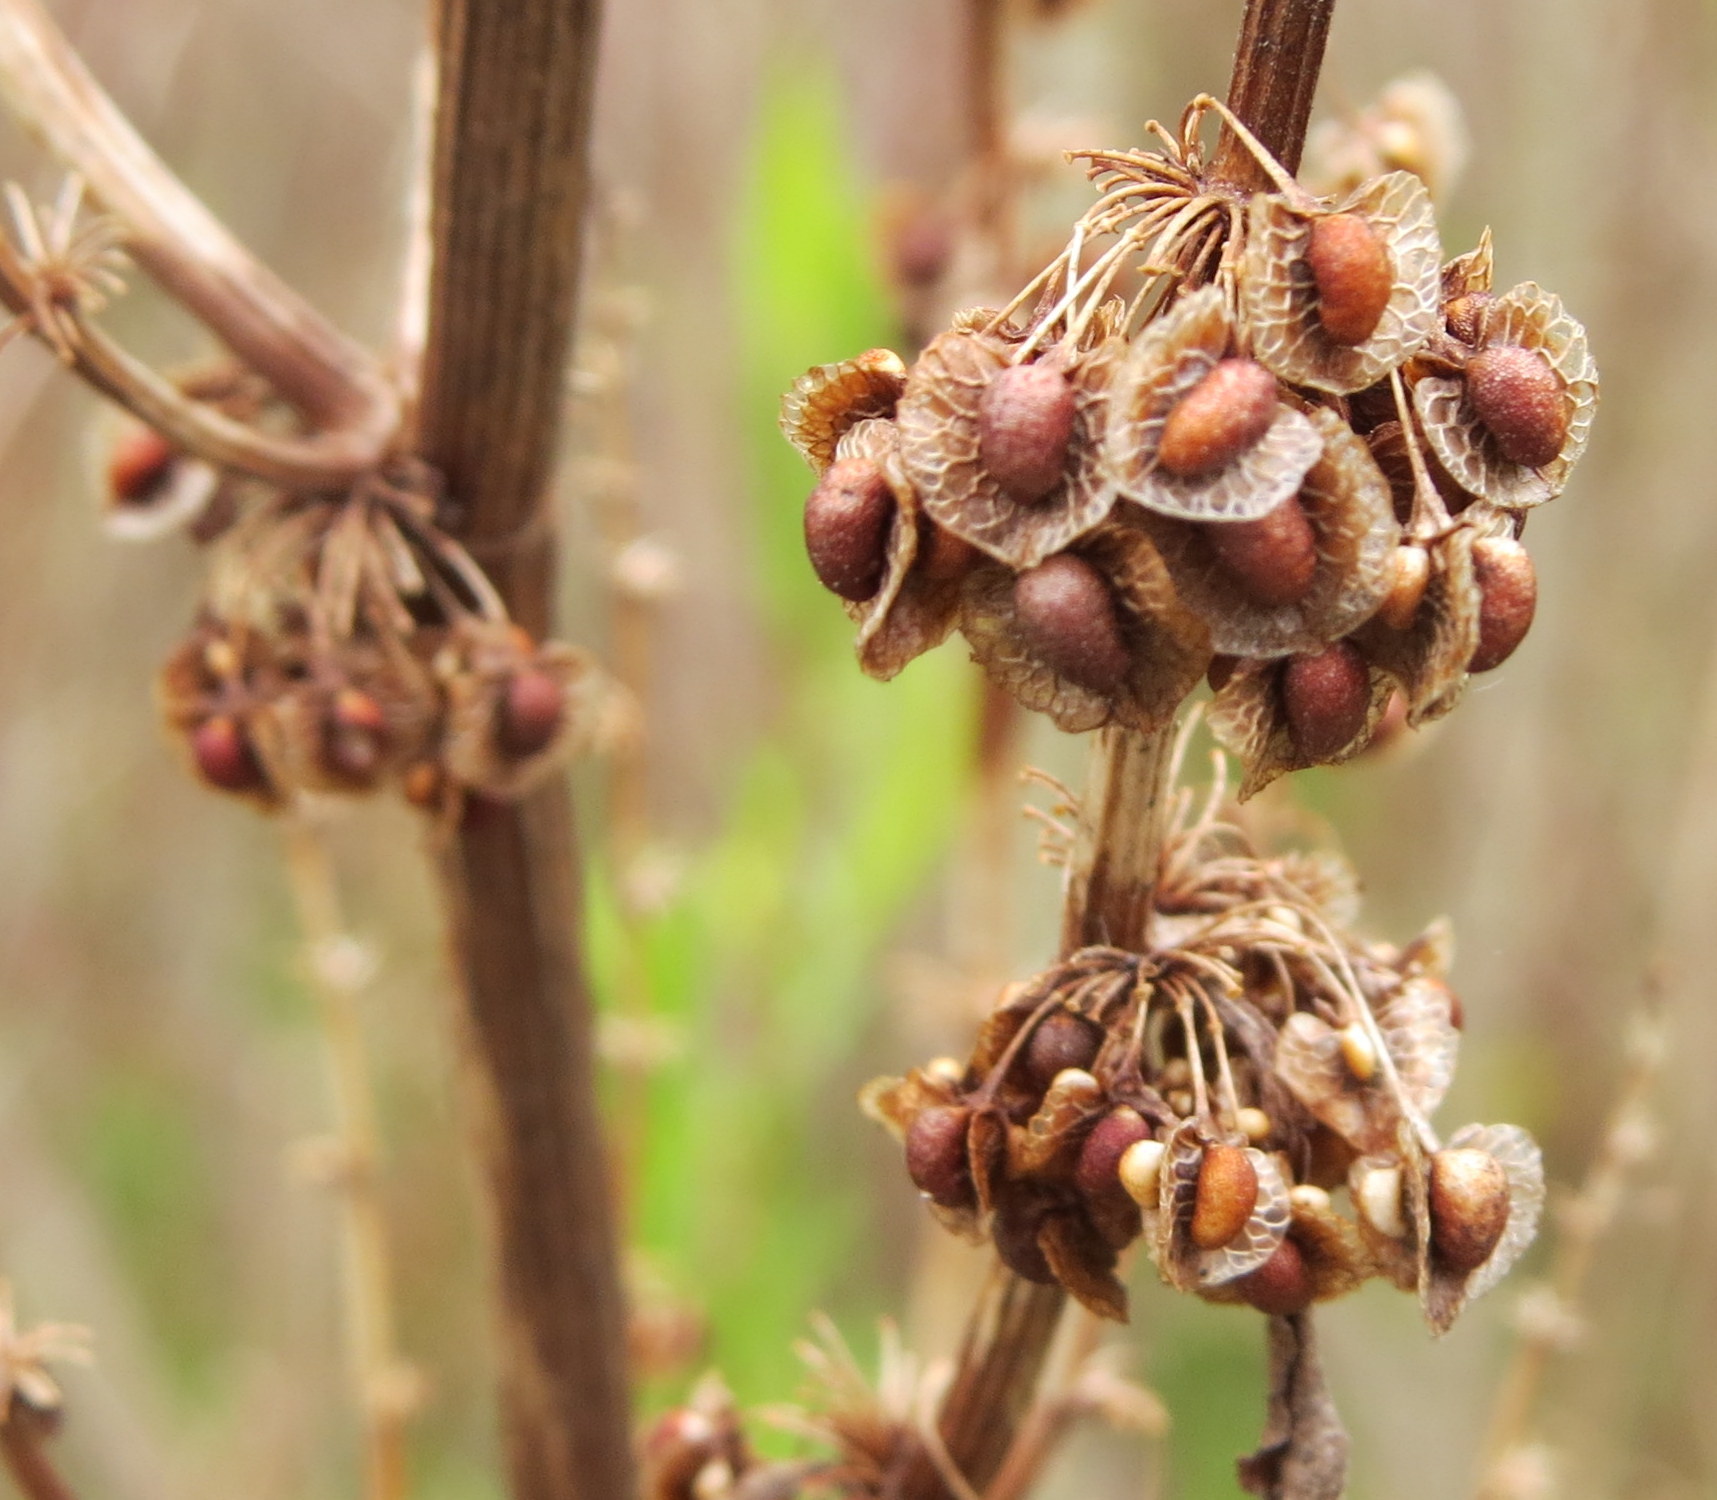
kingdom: Plantae
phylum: Tracheophyta
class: Magnoliopsida
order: Caryophyllales
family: Polygonaceae
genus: Rumex
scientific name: Rumex crispus
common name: Curled dock
